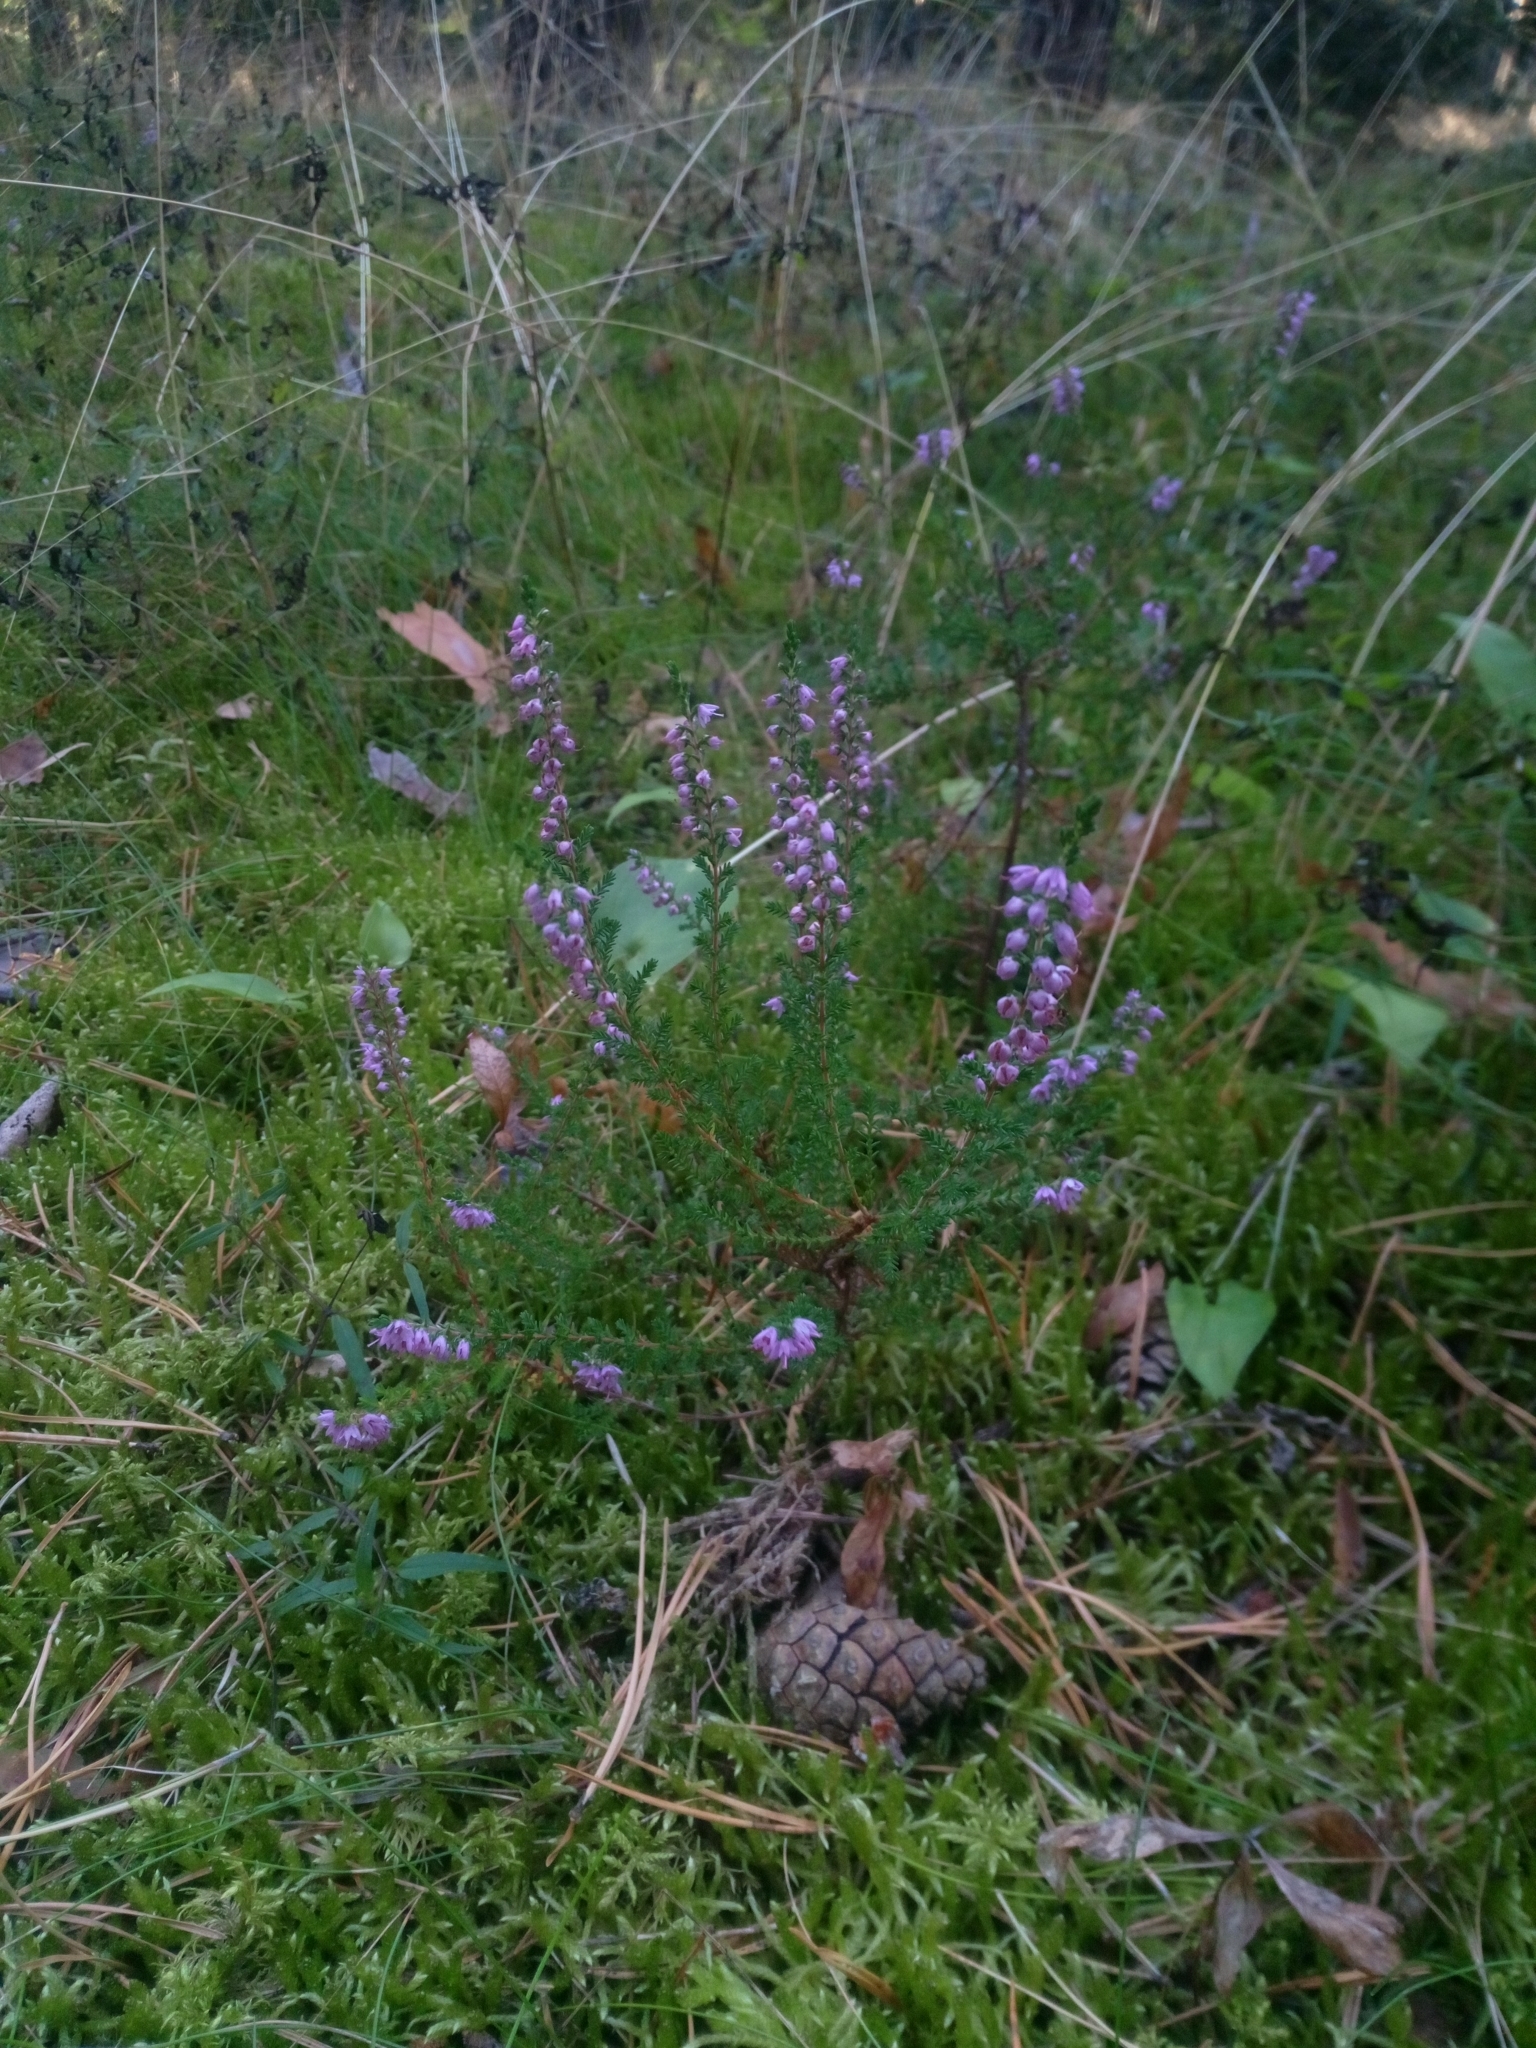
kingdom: Plantae
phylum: Tracheophyta
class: Magnoliopsida
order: Ericales
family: Ericaceae
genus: Calluna
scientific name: Calluna vulgaris
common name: Heather
